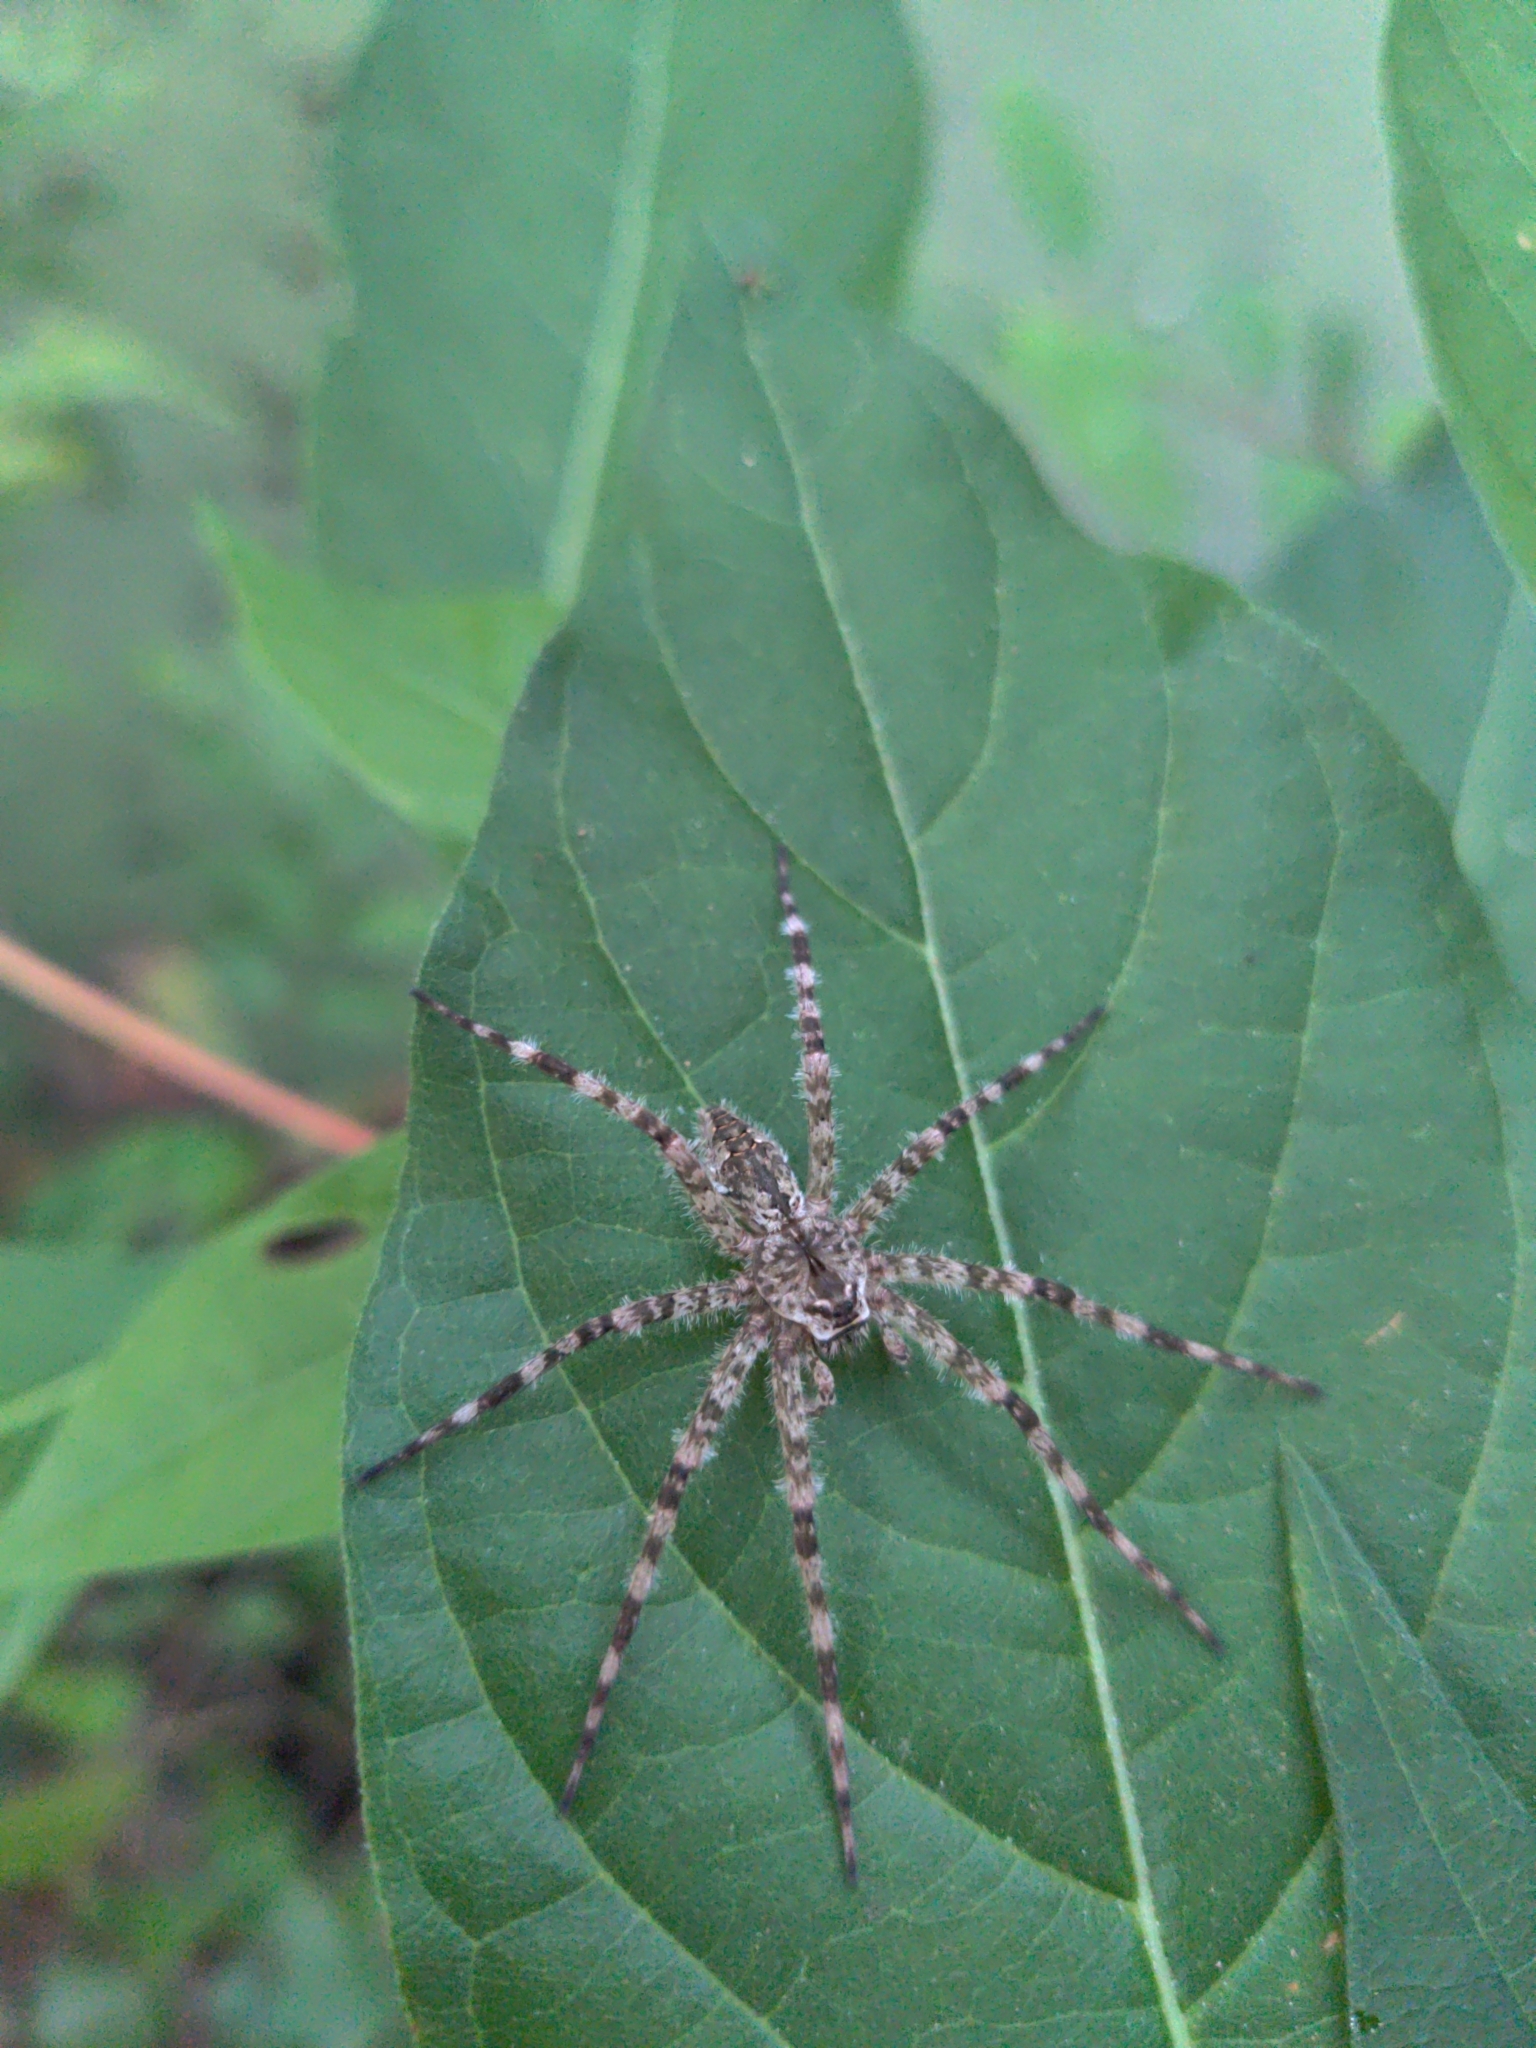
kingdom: Animalia
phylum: Arthropoda
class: Arachnida
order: Araneae
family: Pisauridae
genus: Dolomedes
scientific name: Dolomedes albineus
